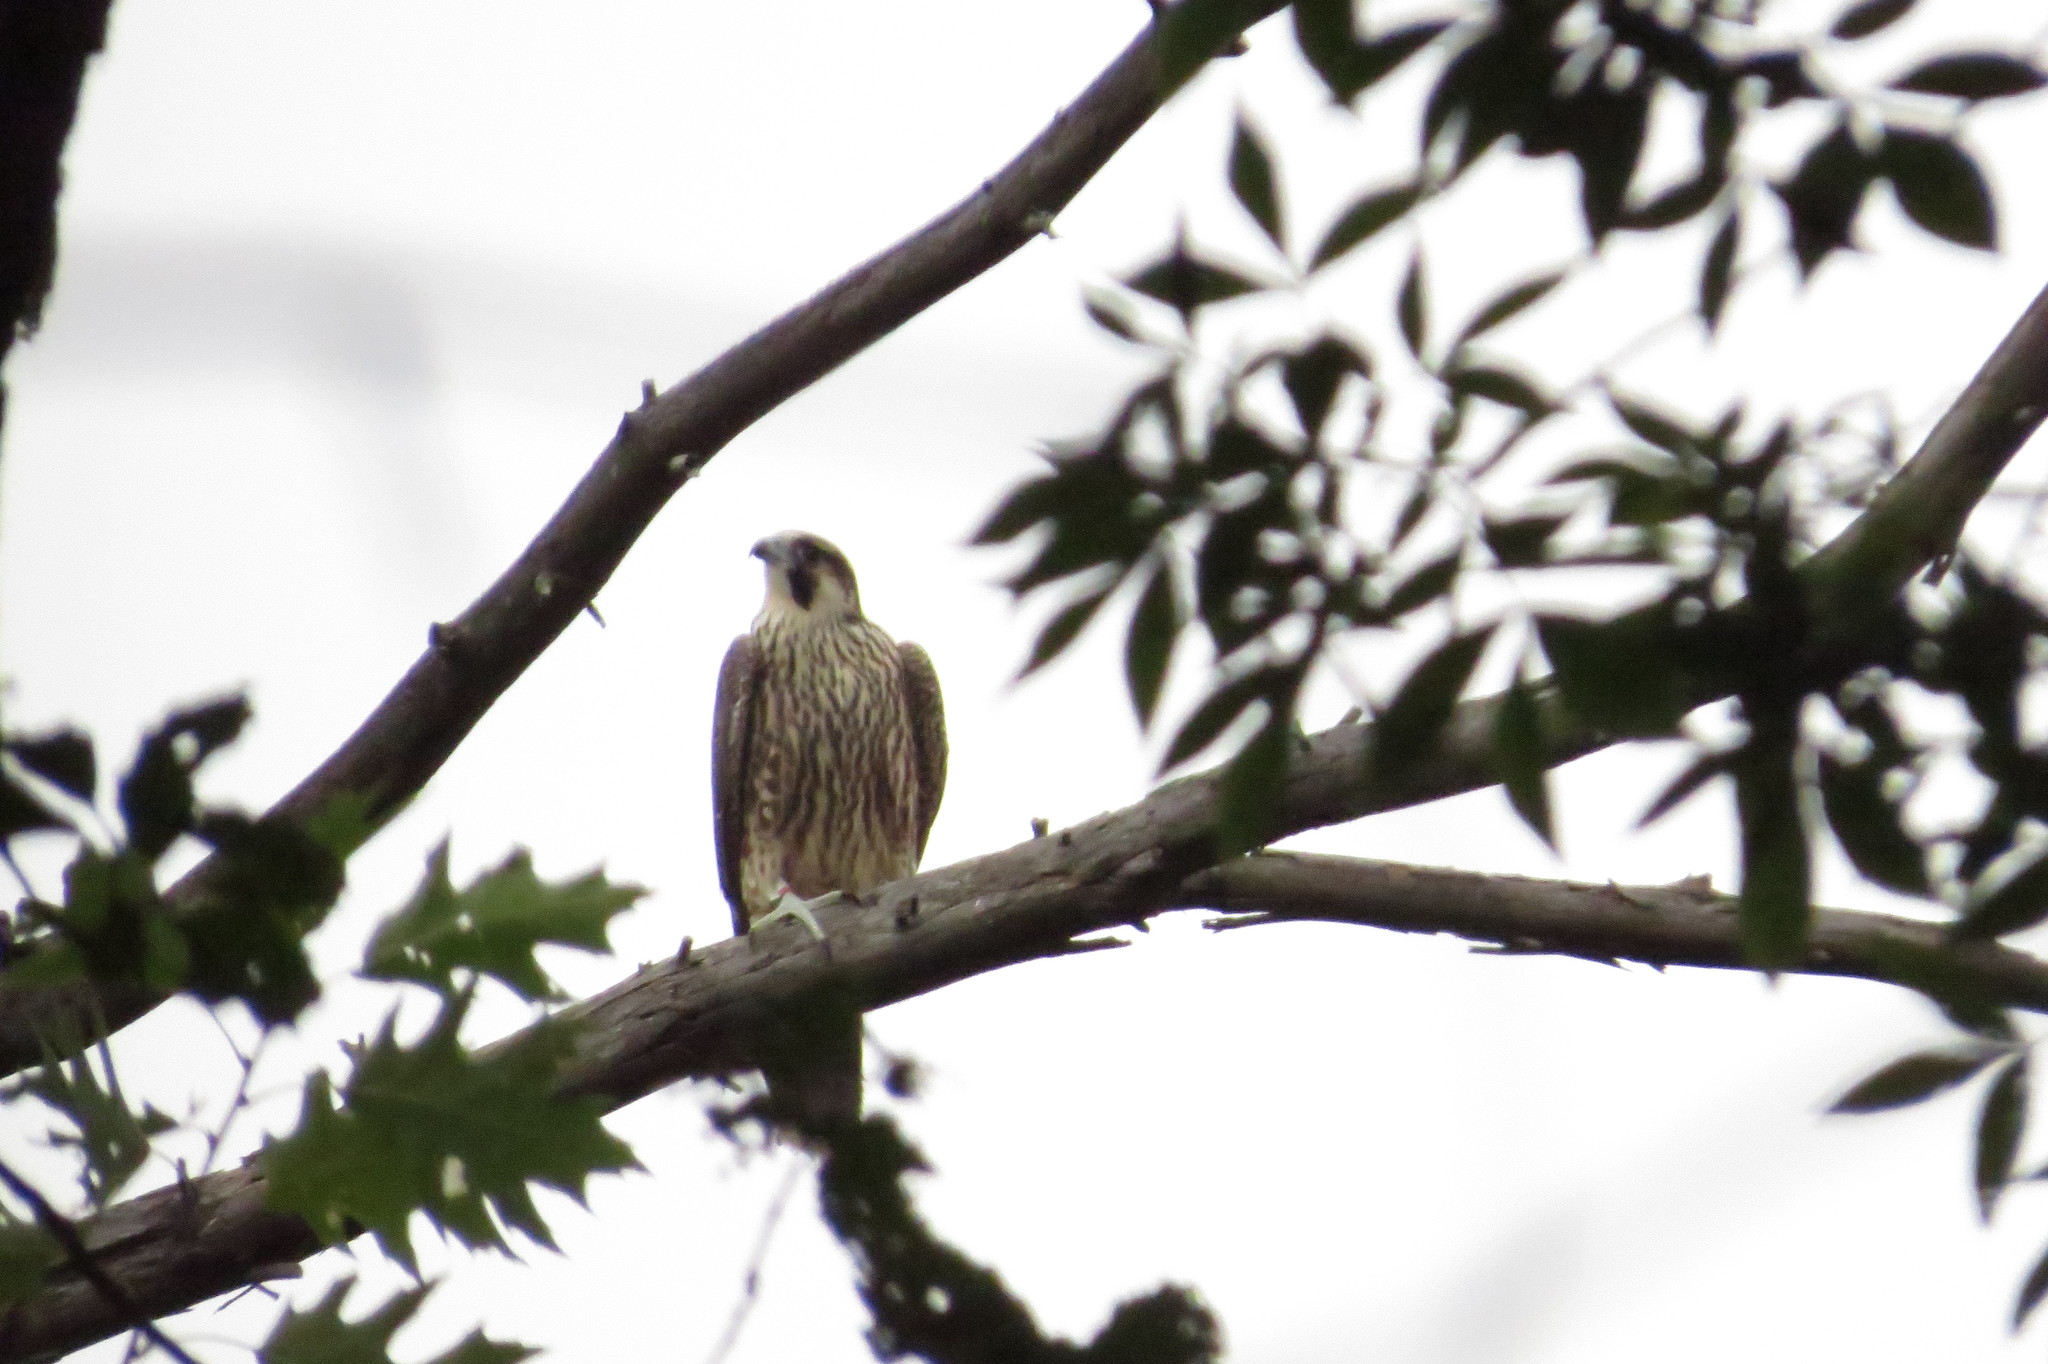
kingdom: Animalia
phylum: Chordata
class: Aves
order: Falconiformes
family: Falconidae
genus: Falco
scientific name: Falco peregrinus
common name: Peregrine falcon
